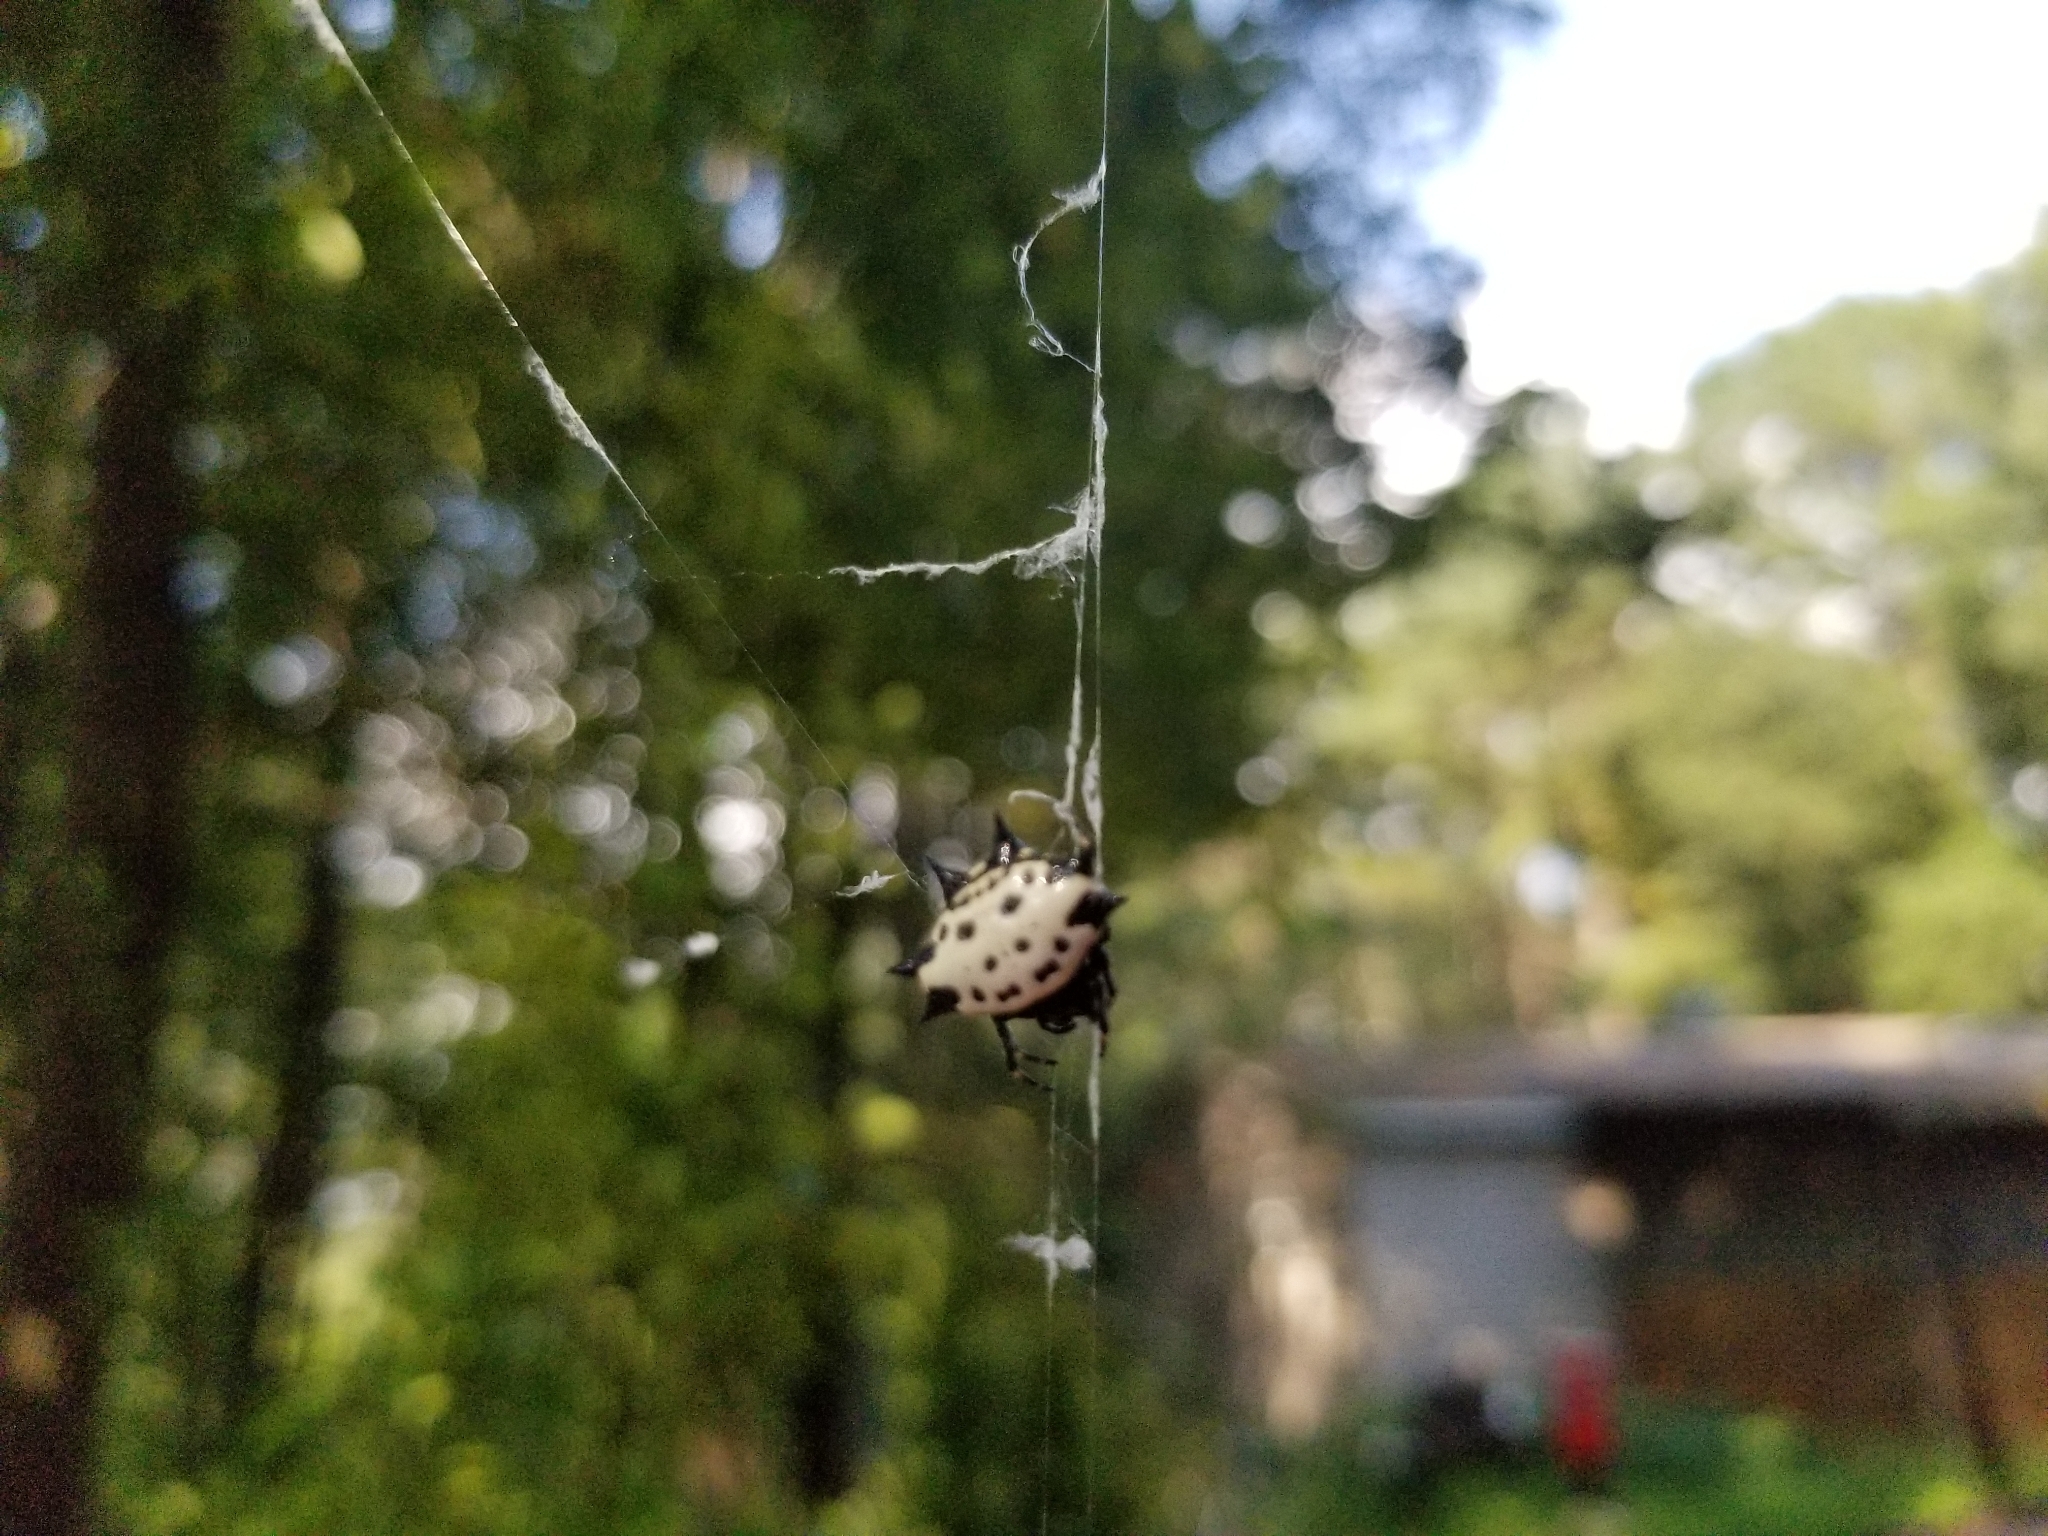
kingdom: Animalia
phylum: Arthropoda
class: Arachnida
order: Araneae
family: Araneidae
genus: Gasteracantha
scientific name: Gasteracantha cancriformis
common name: Orb weavers
